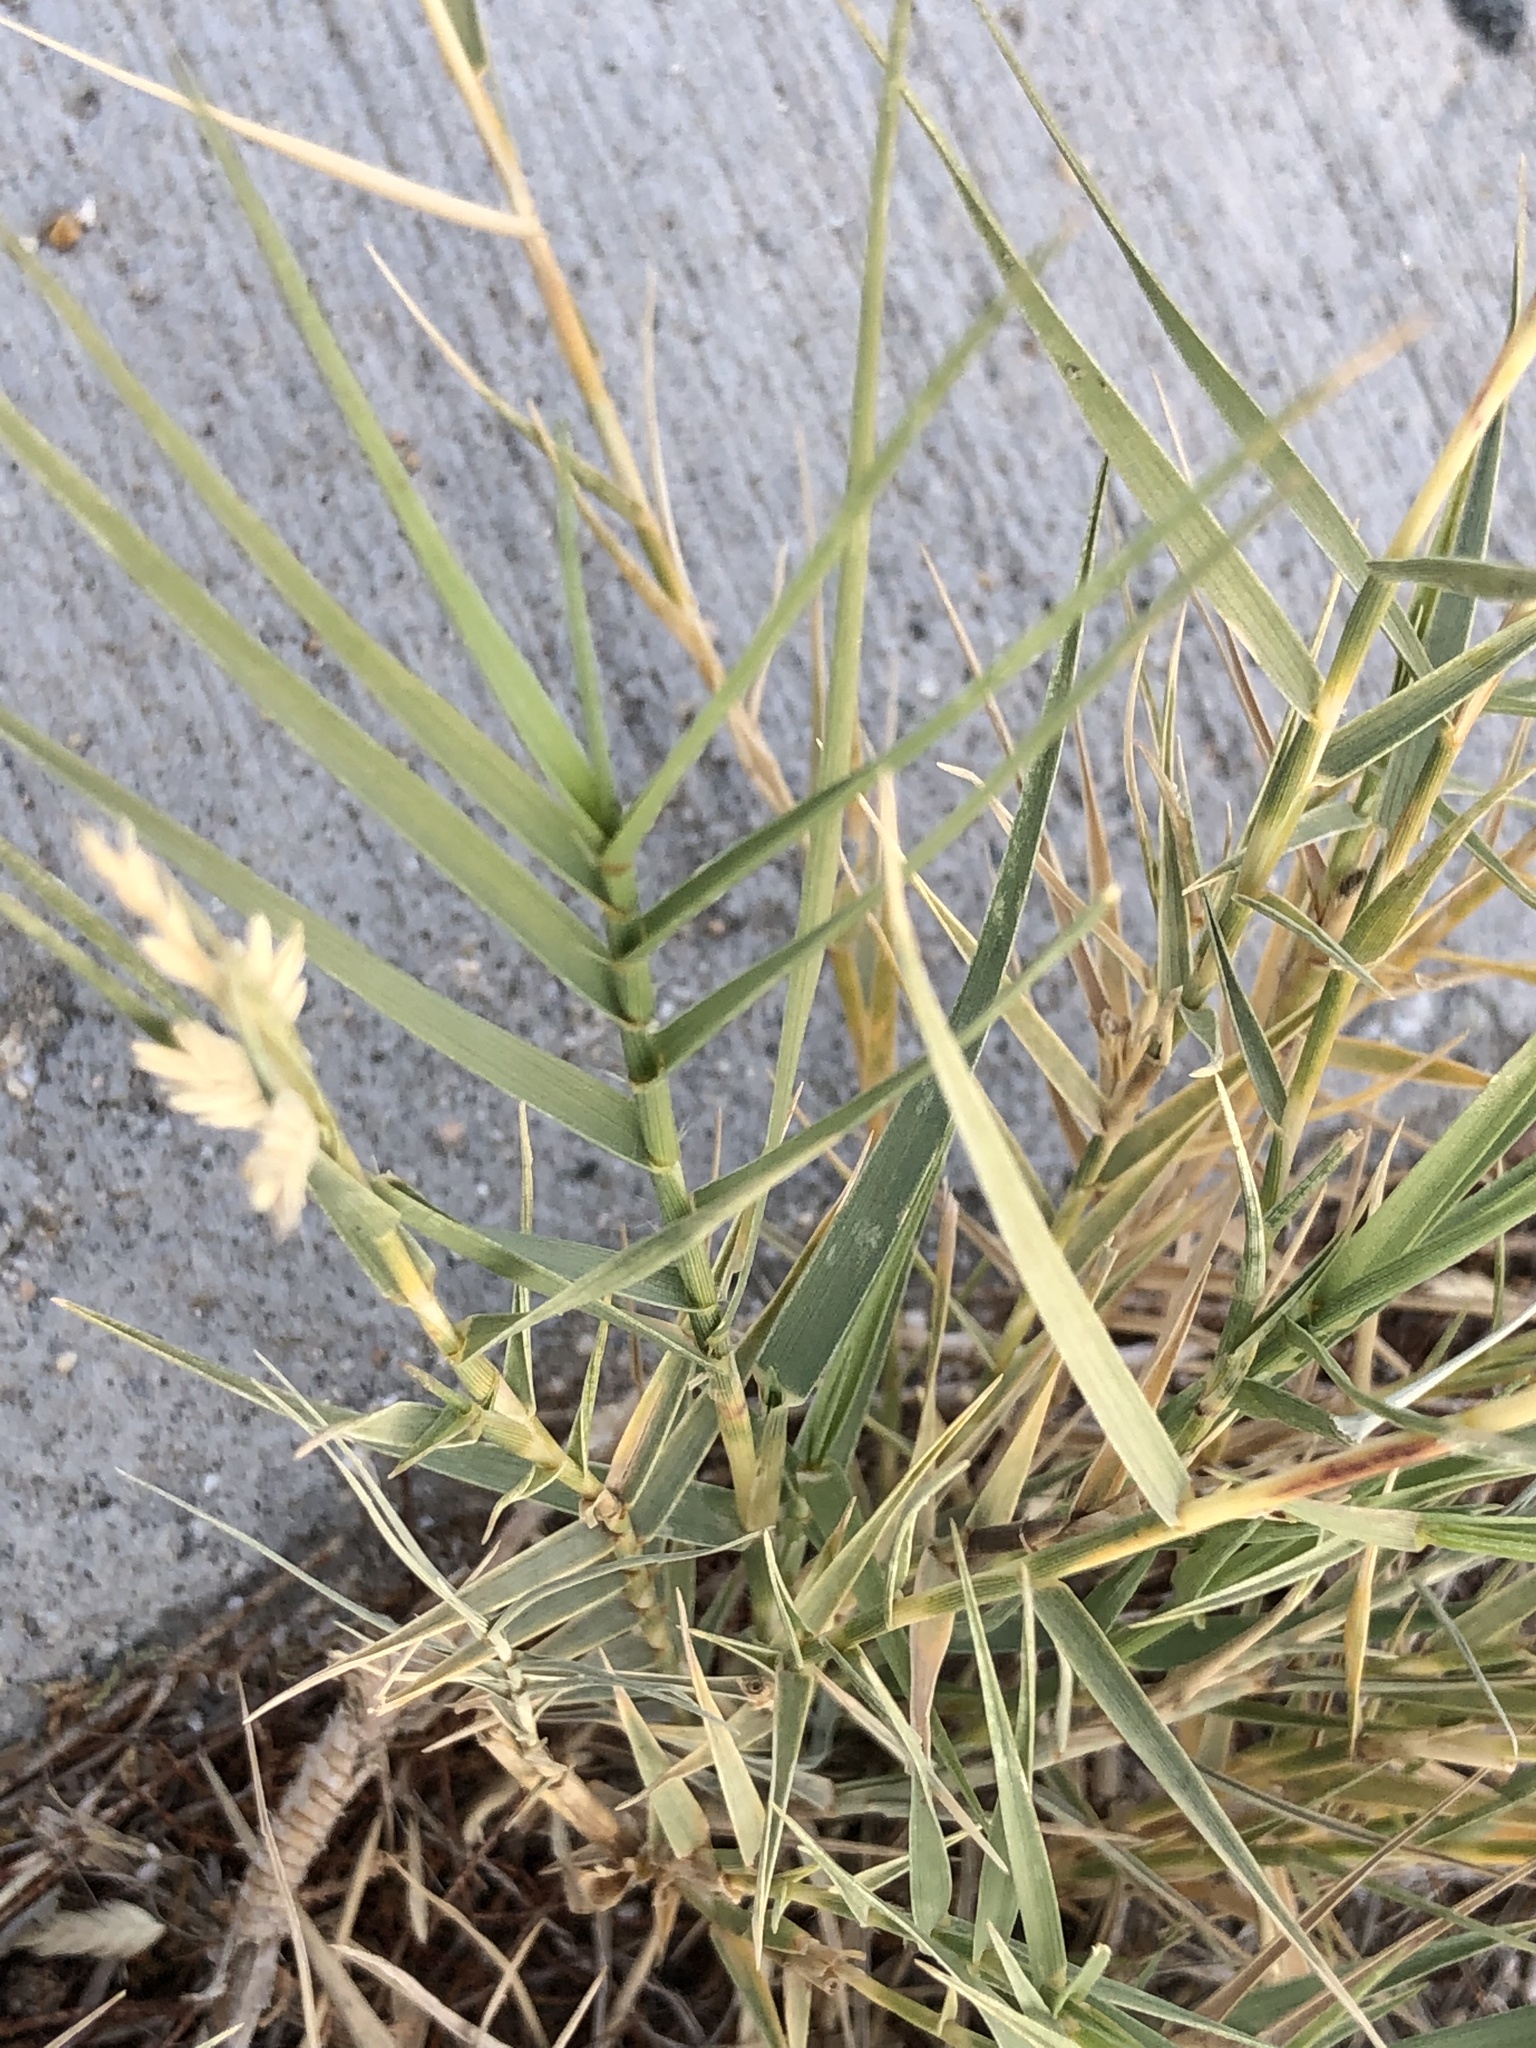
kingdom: Plantae
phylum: Tracheophyta
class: Liliopsida
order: Poales
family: Poaceae
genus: Distichlis
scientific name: Distichlis spicata
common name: Saltgrass
